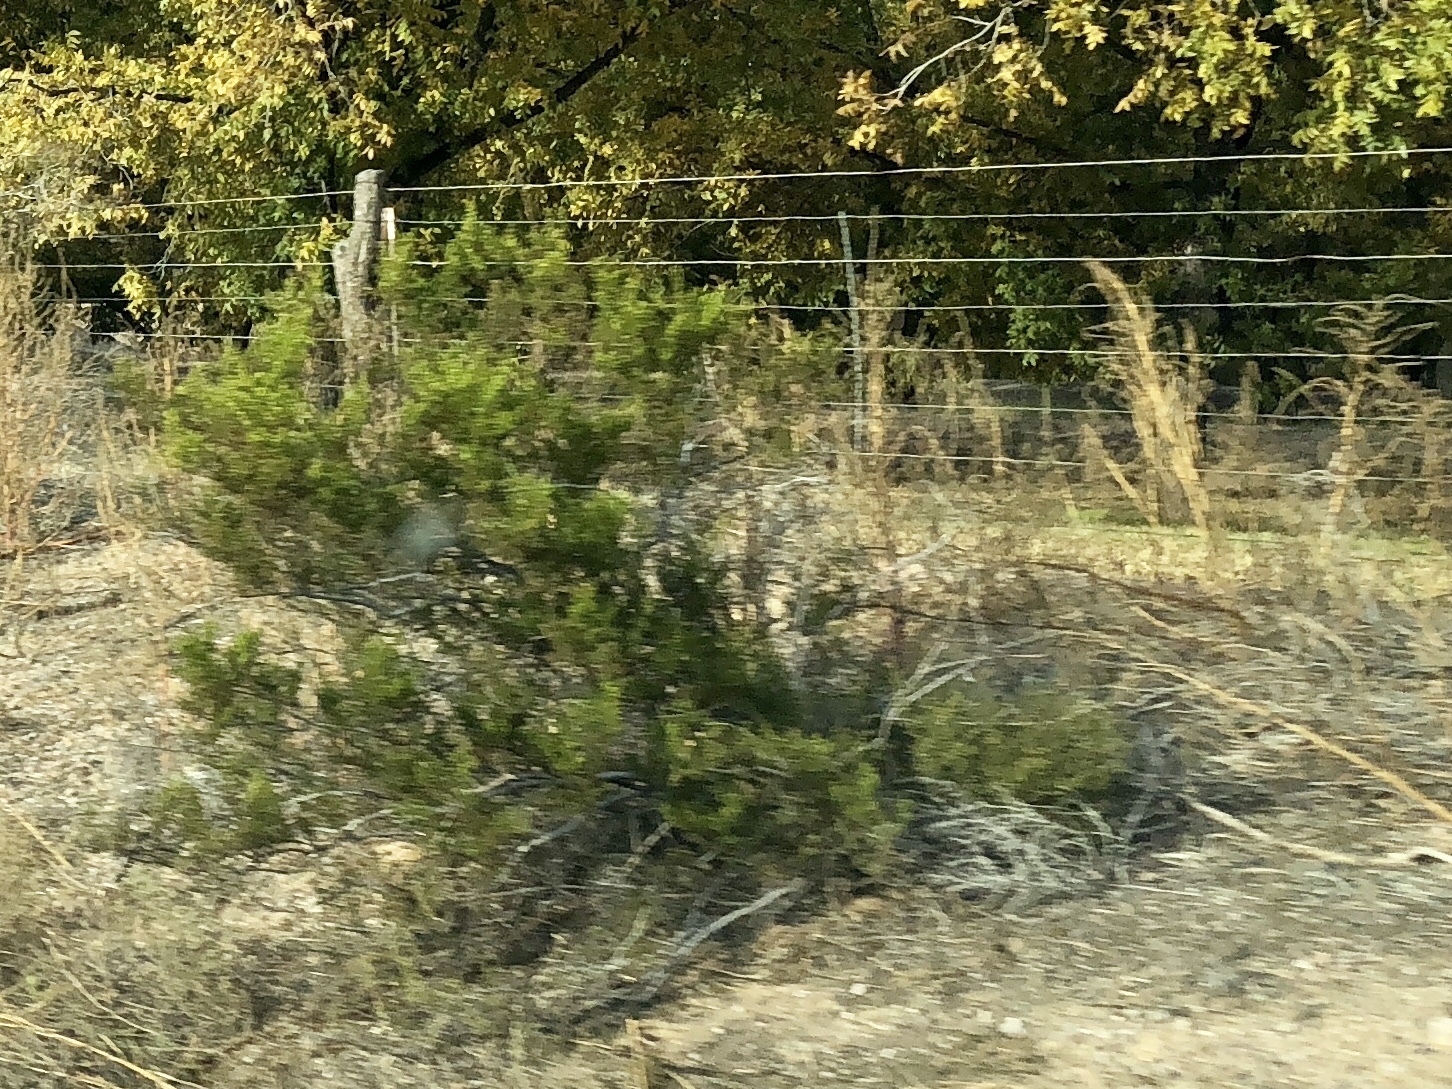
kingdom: Plantae
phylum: Tracheophyta
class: Magnoliopsida
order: Zygophyllales
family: Zygophyllaceae
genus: Larrea
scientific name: Larrea tridentata
